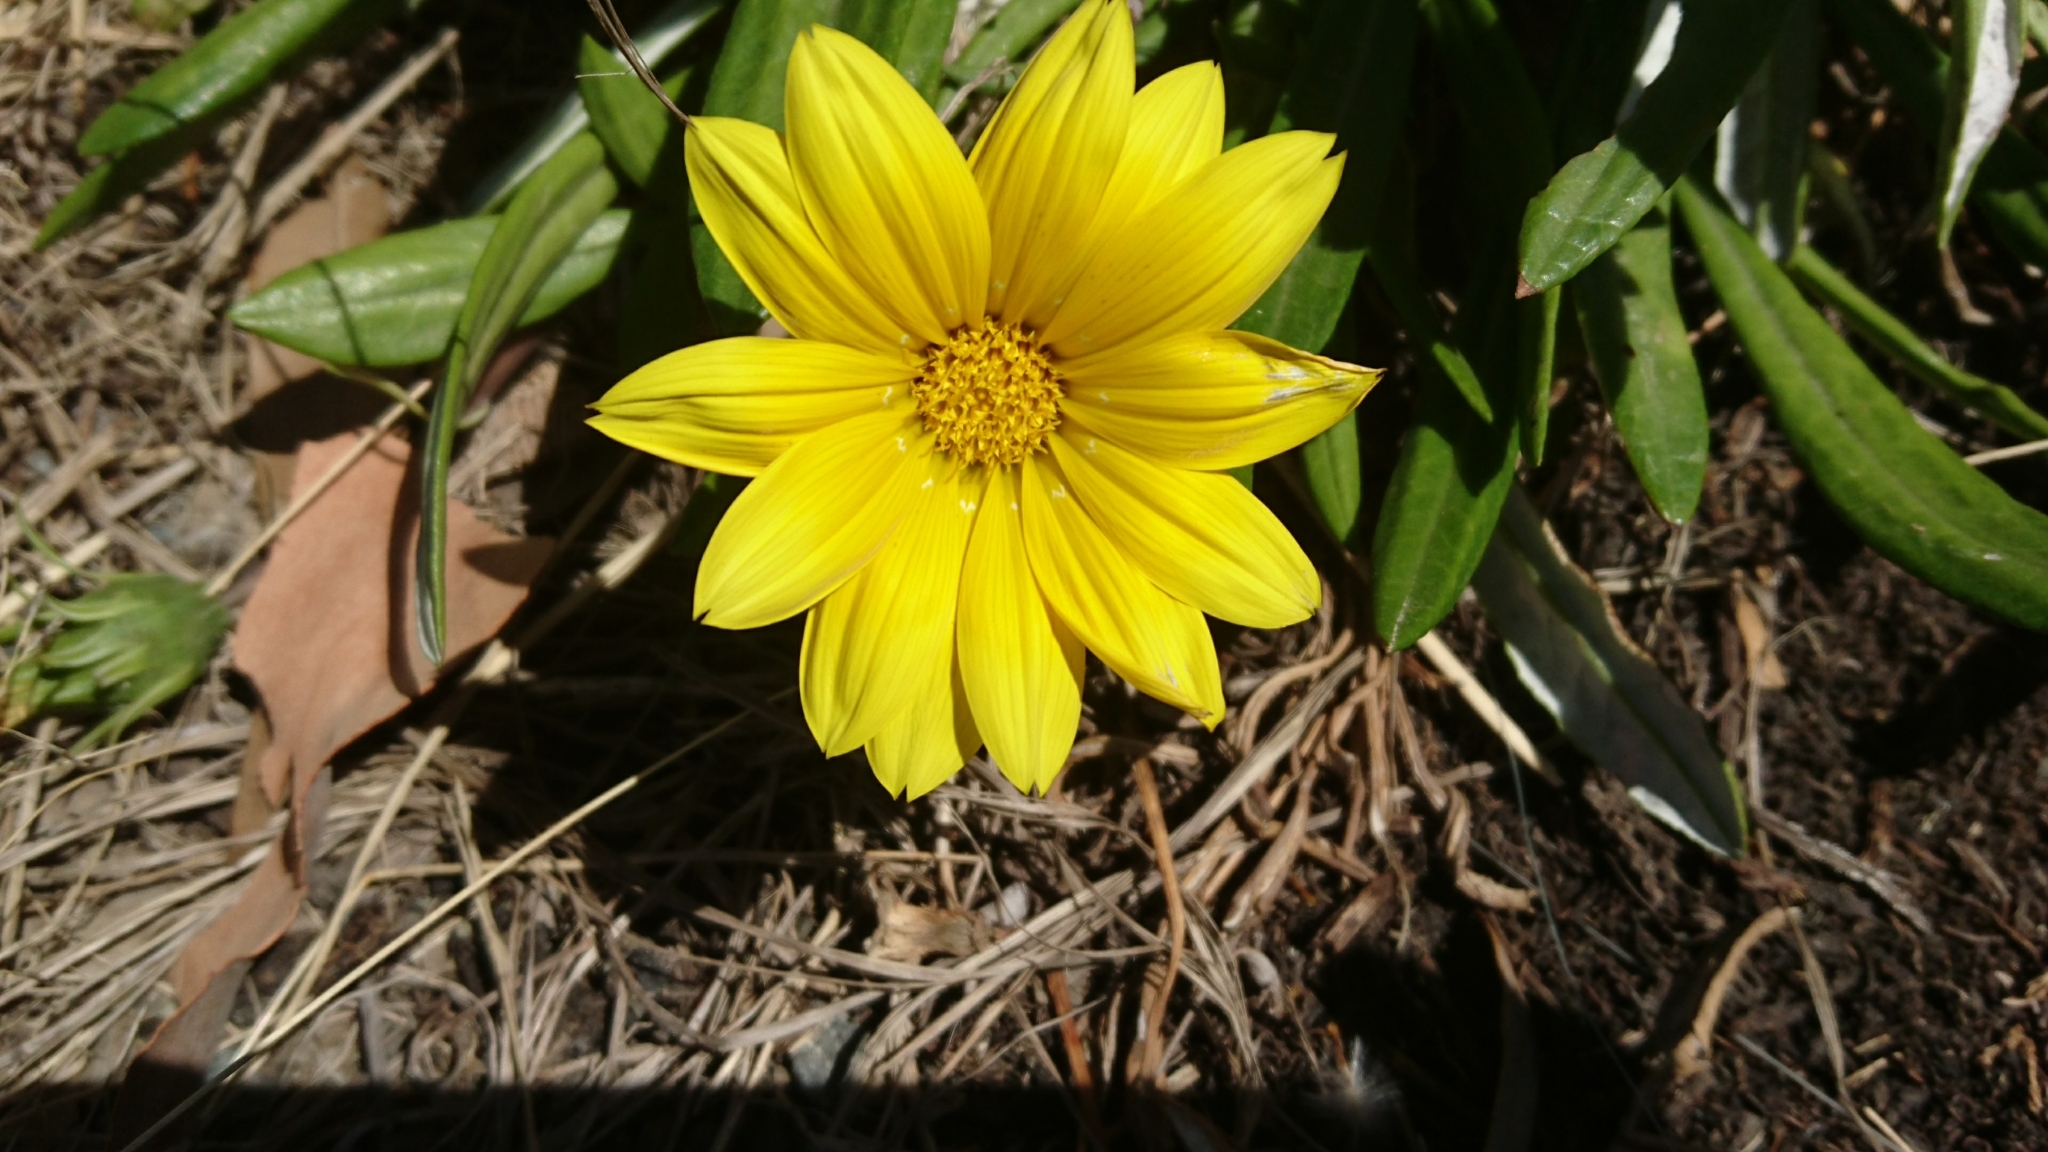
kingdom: Plantae
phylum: Tracheophyta
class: Magnoliopsida
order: Asterales
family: Asteraceae
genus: Gazania
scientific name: Gazania rigens
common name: Treasureflower
